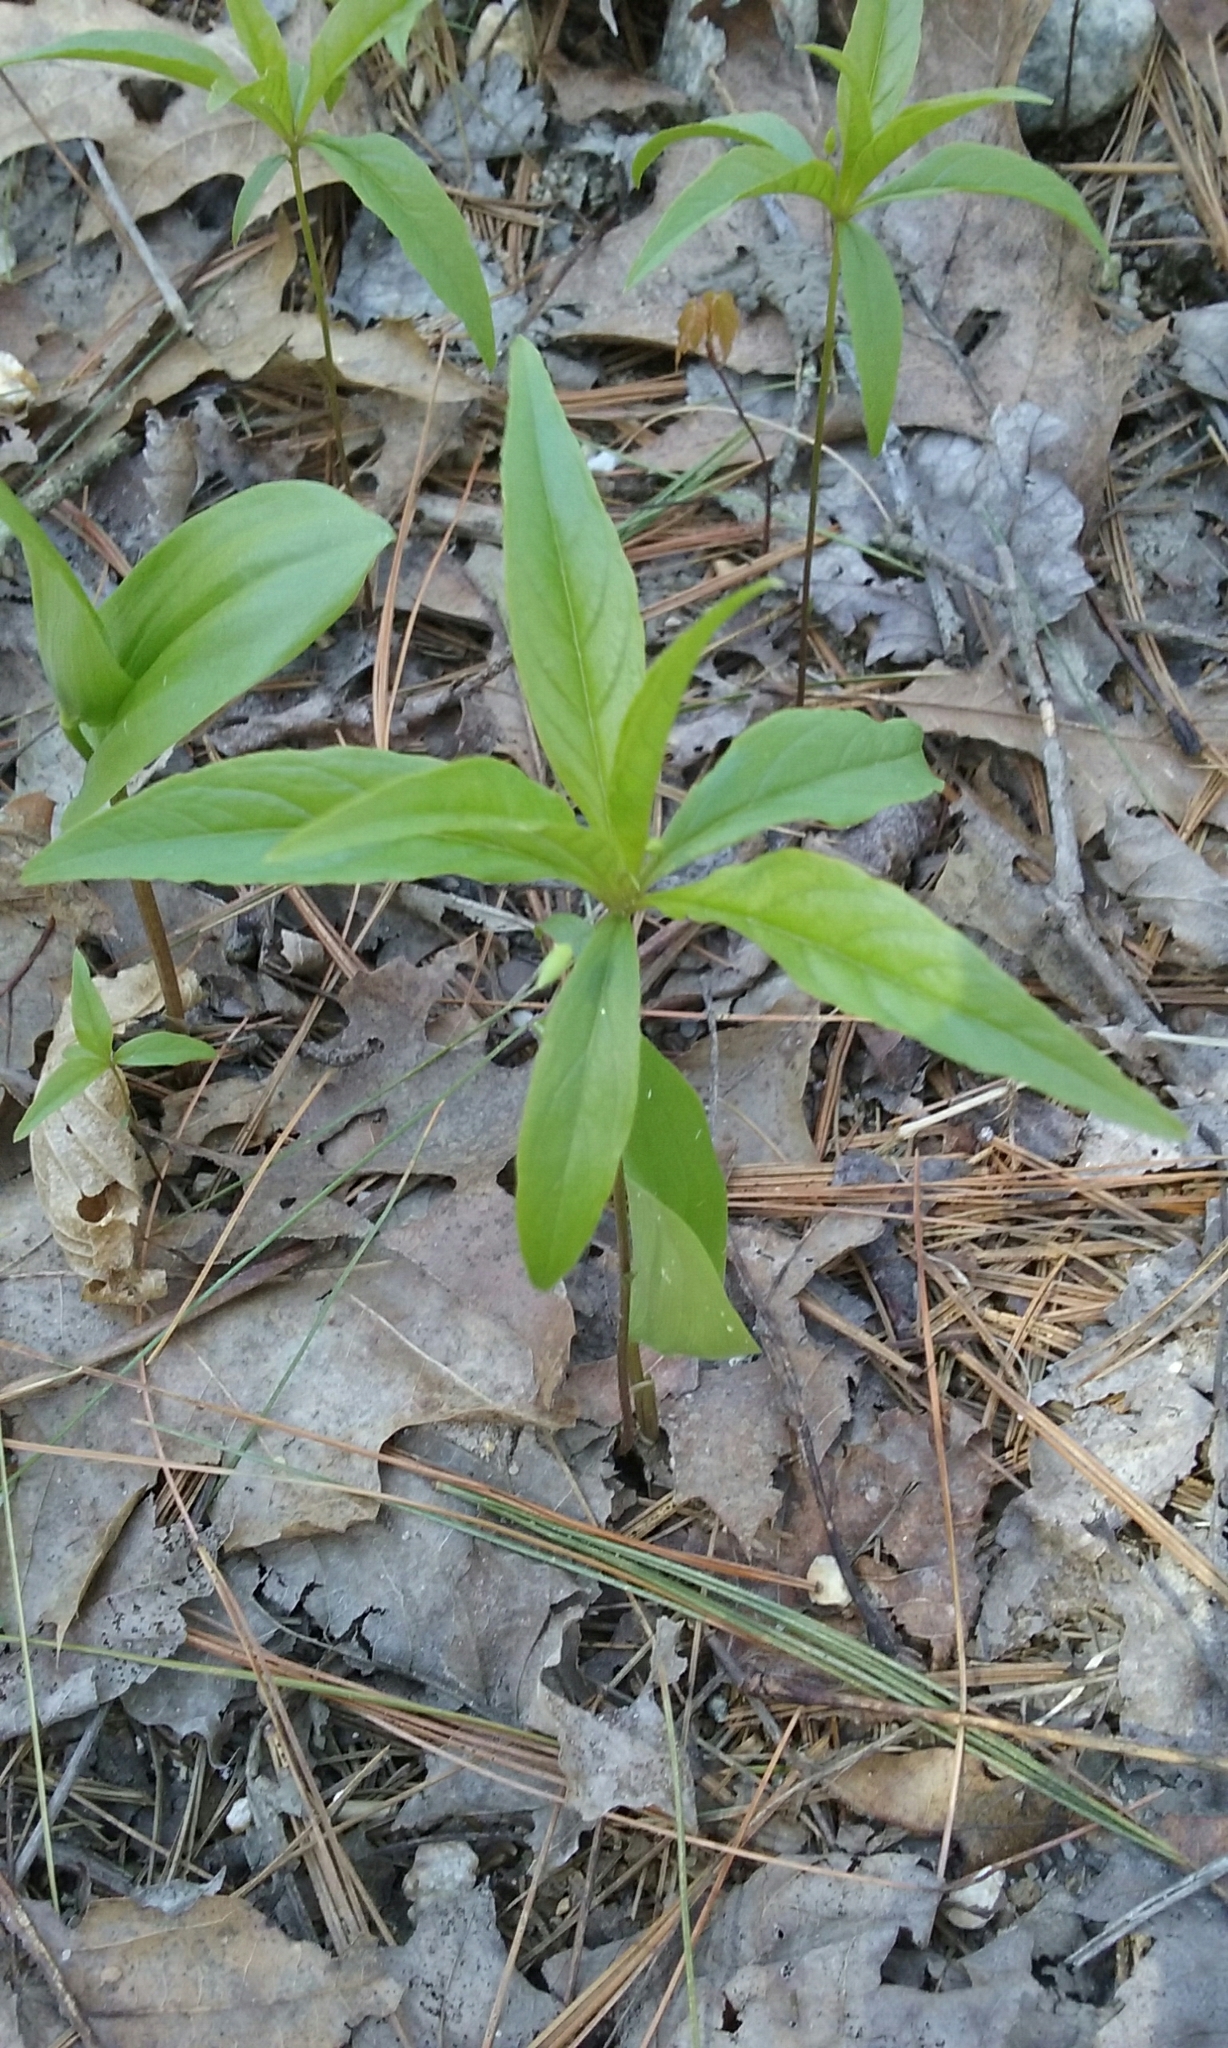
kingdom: Plantae
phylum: Tracheophyta
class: Magnoliopsida
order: Ericales
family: Primulaceae
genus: Lysimachia
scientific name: Lysimachia borealis
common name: American starflower
